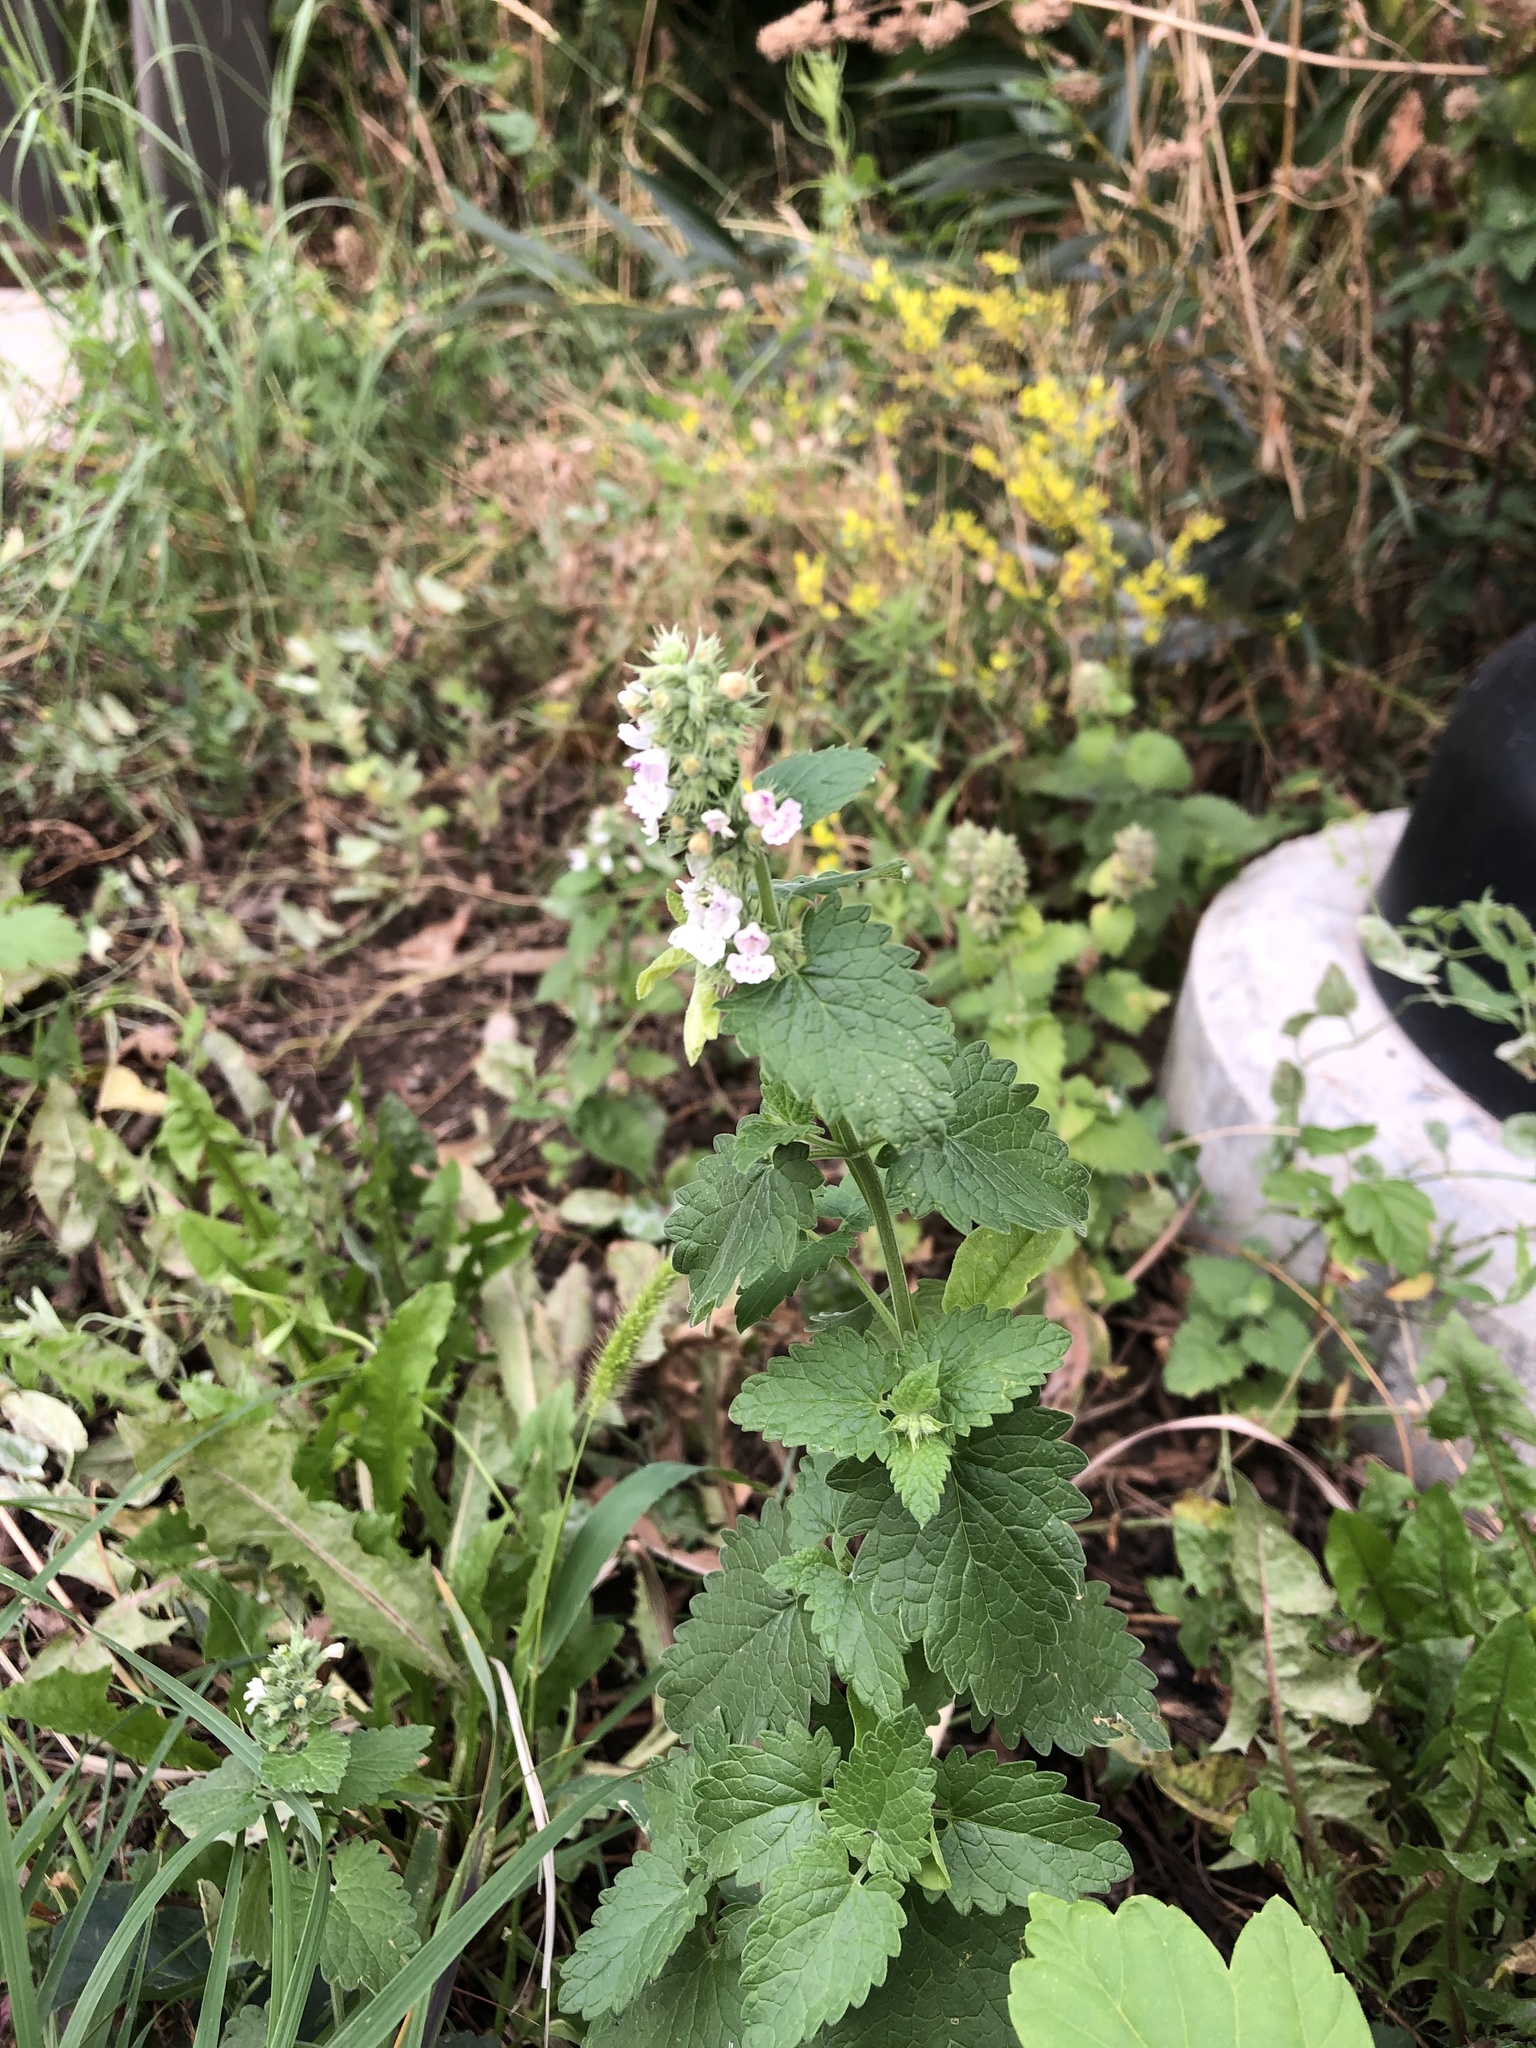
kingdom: Plantae
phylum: Tracheophyta
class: Magnoliopsida
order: Lamiales
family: Lamiaceae
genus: Nepeta
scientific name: Nepeta cataria
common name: Catnip
